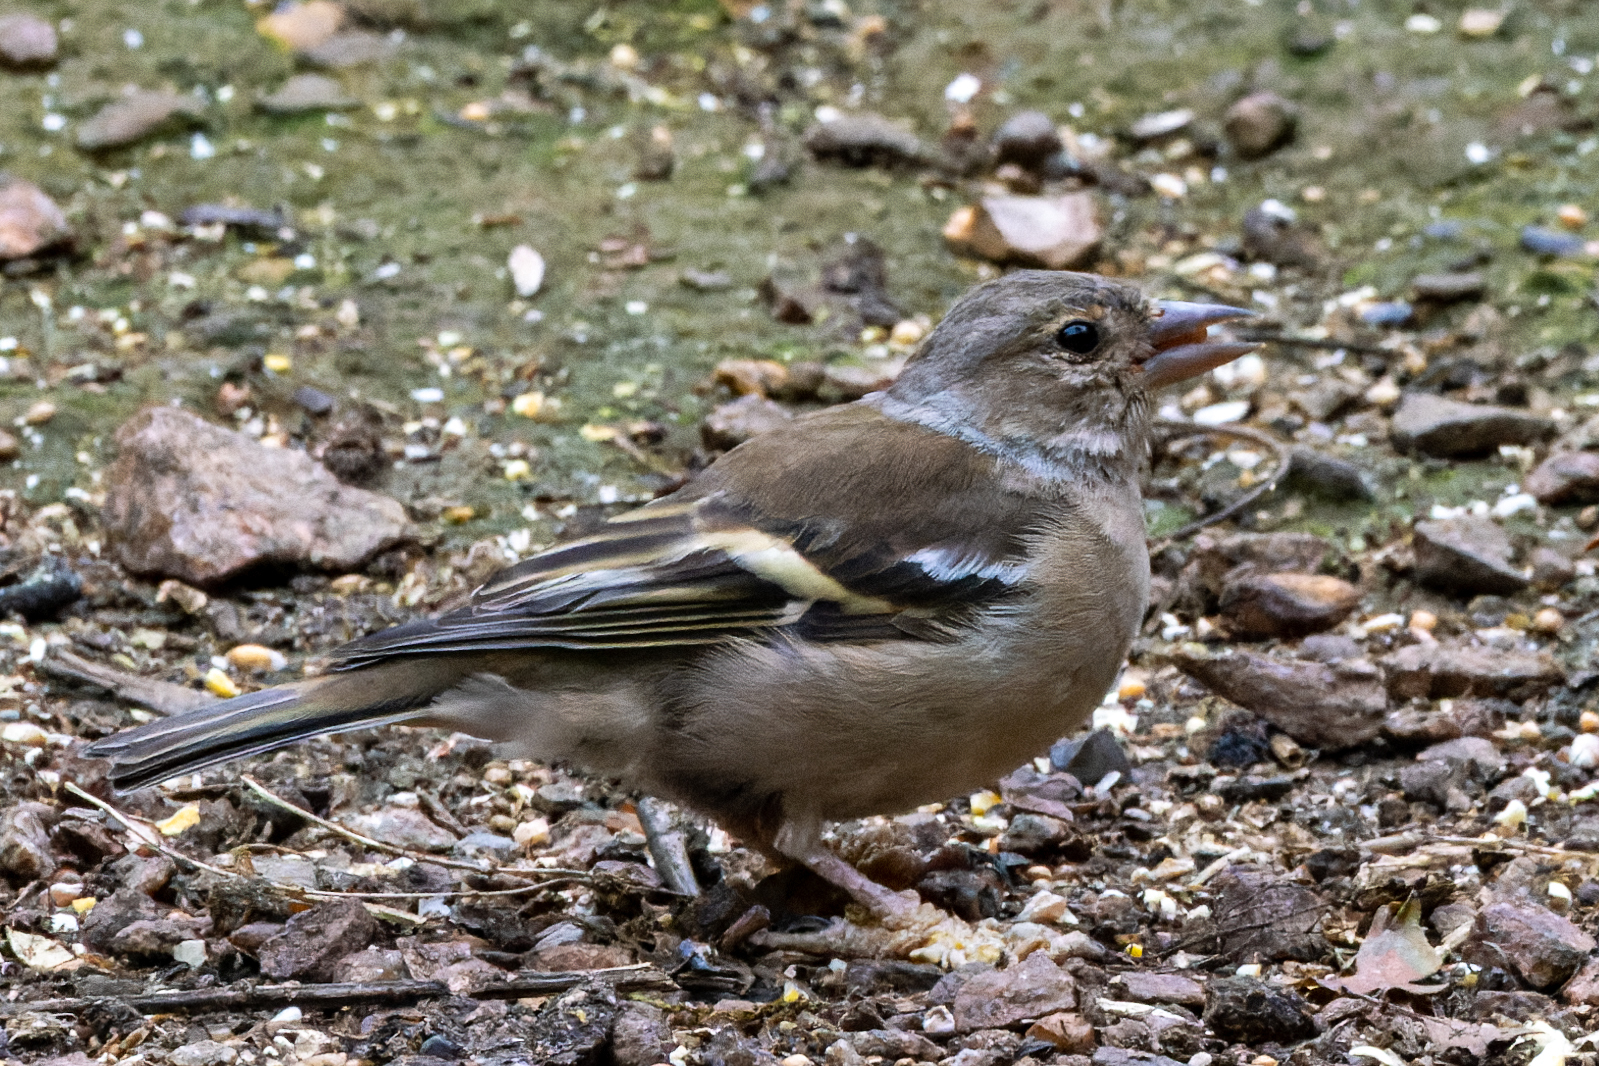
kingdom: Animalia
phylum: Chordata
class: Aves
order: Passeriformes
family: Fringillidae
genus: Fringilla
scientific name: Fringilla coelebs
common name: Common chaffinch
